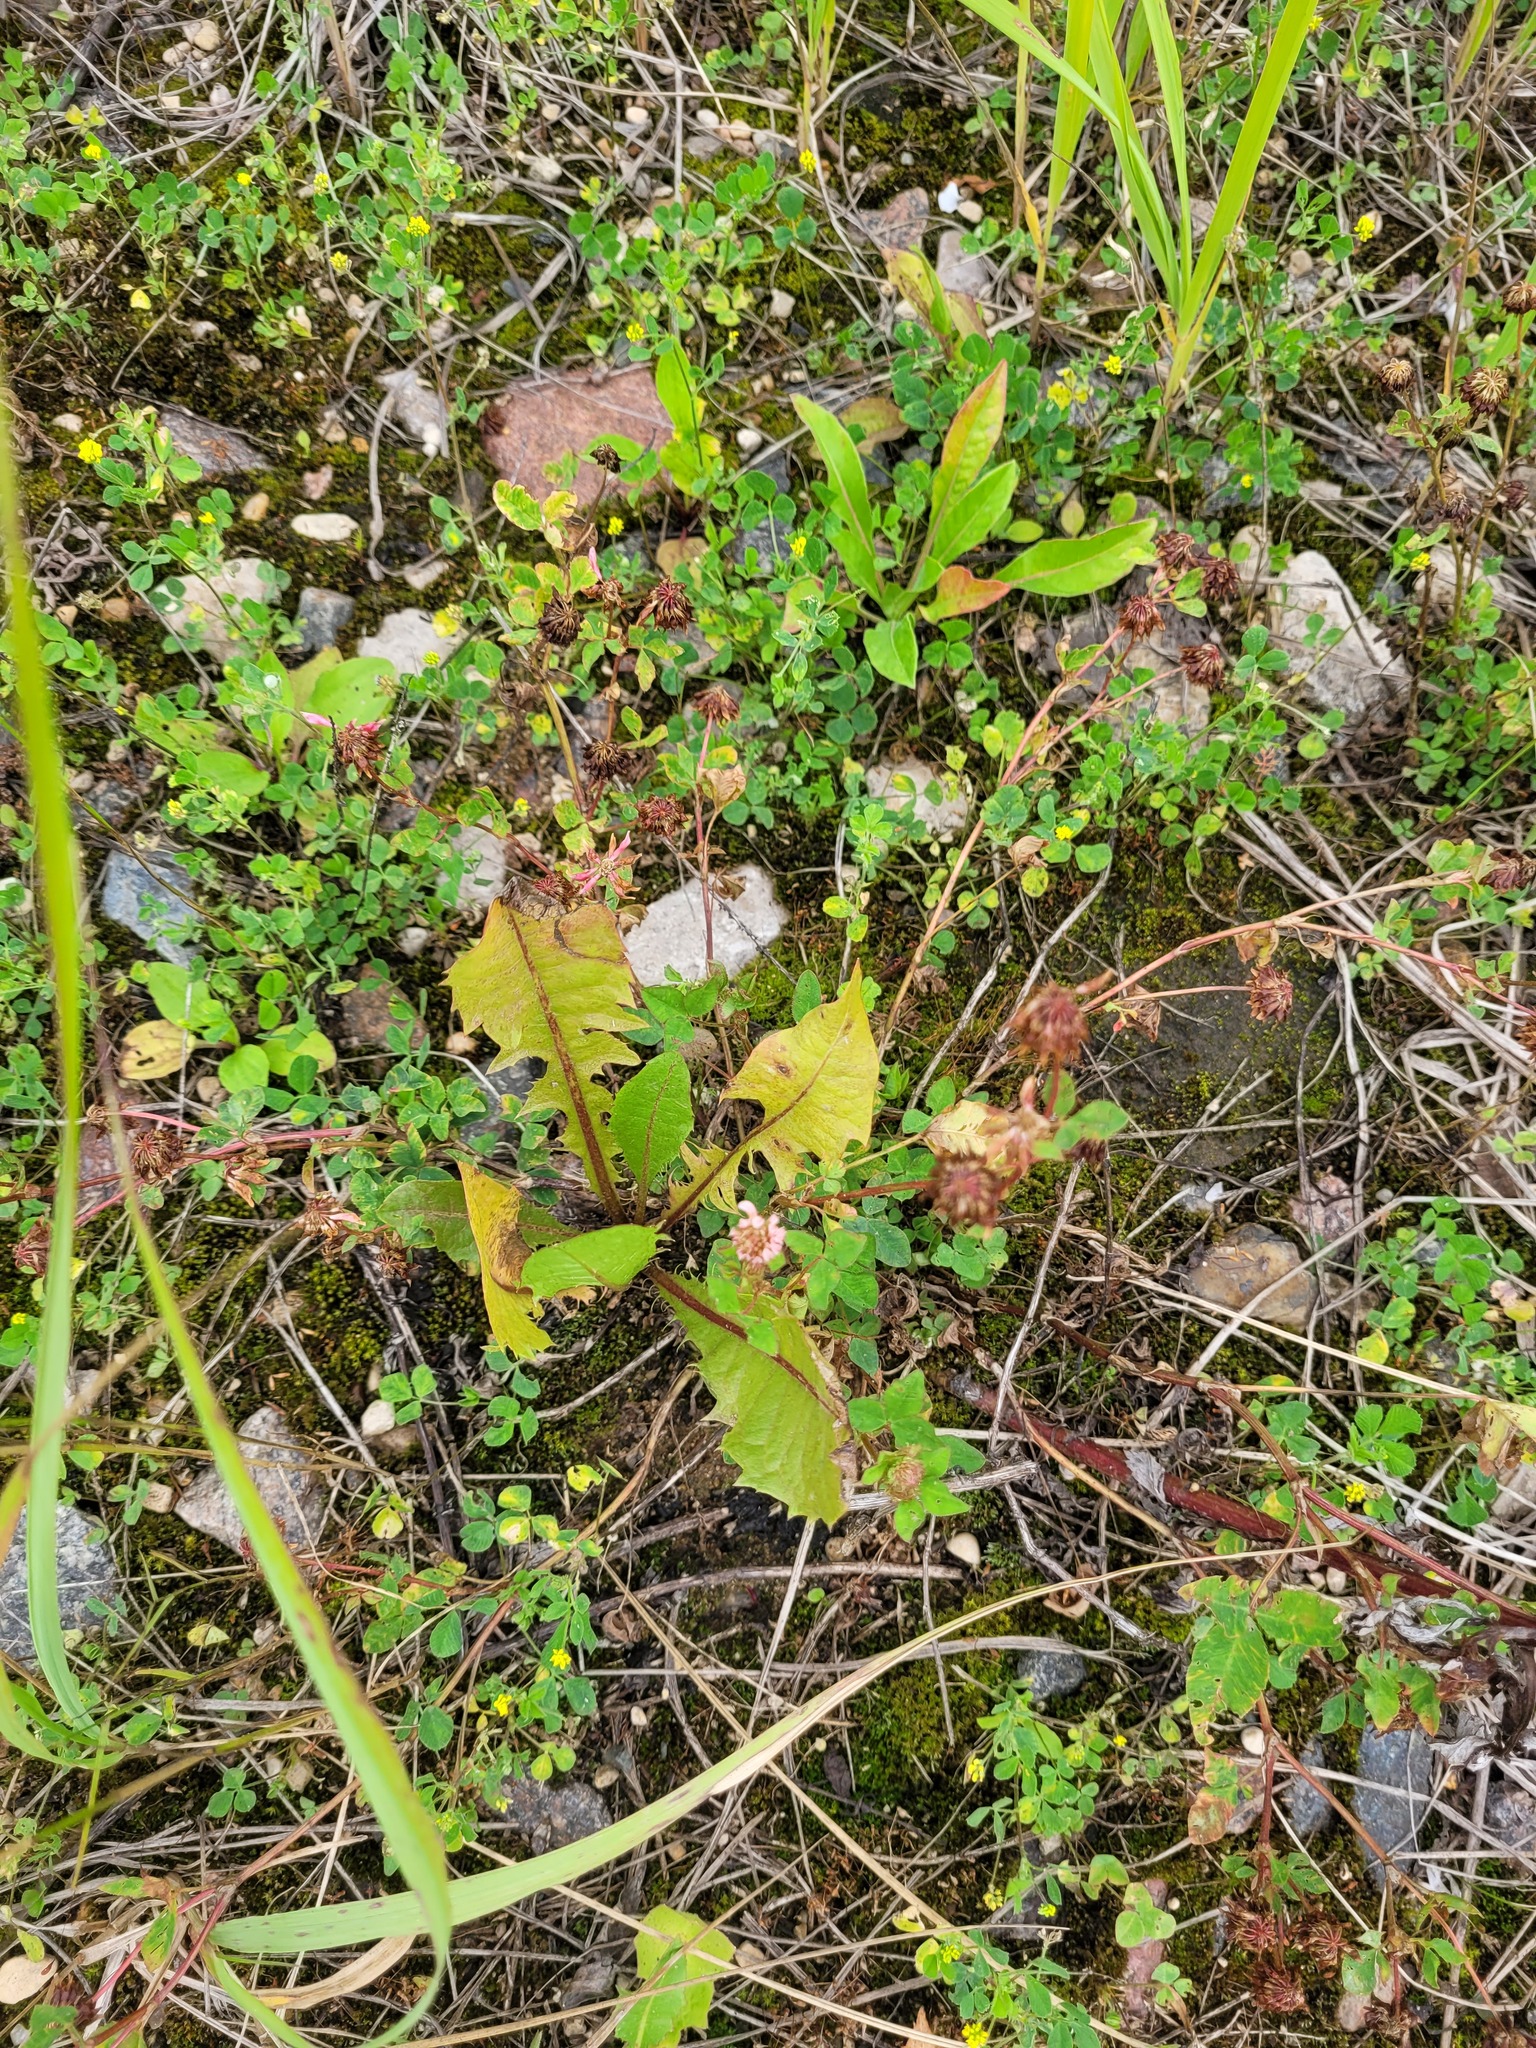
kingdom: Plantae
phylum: Tracheophyta
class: Magnoliopsida
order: Asterales
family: Asteraceae
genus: Taraxacum
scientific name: Taraxacum officinale
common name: Common dandelion
